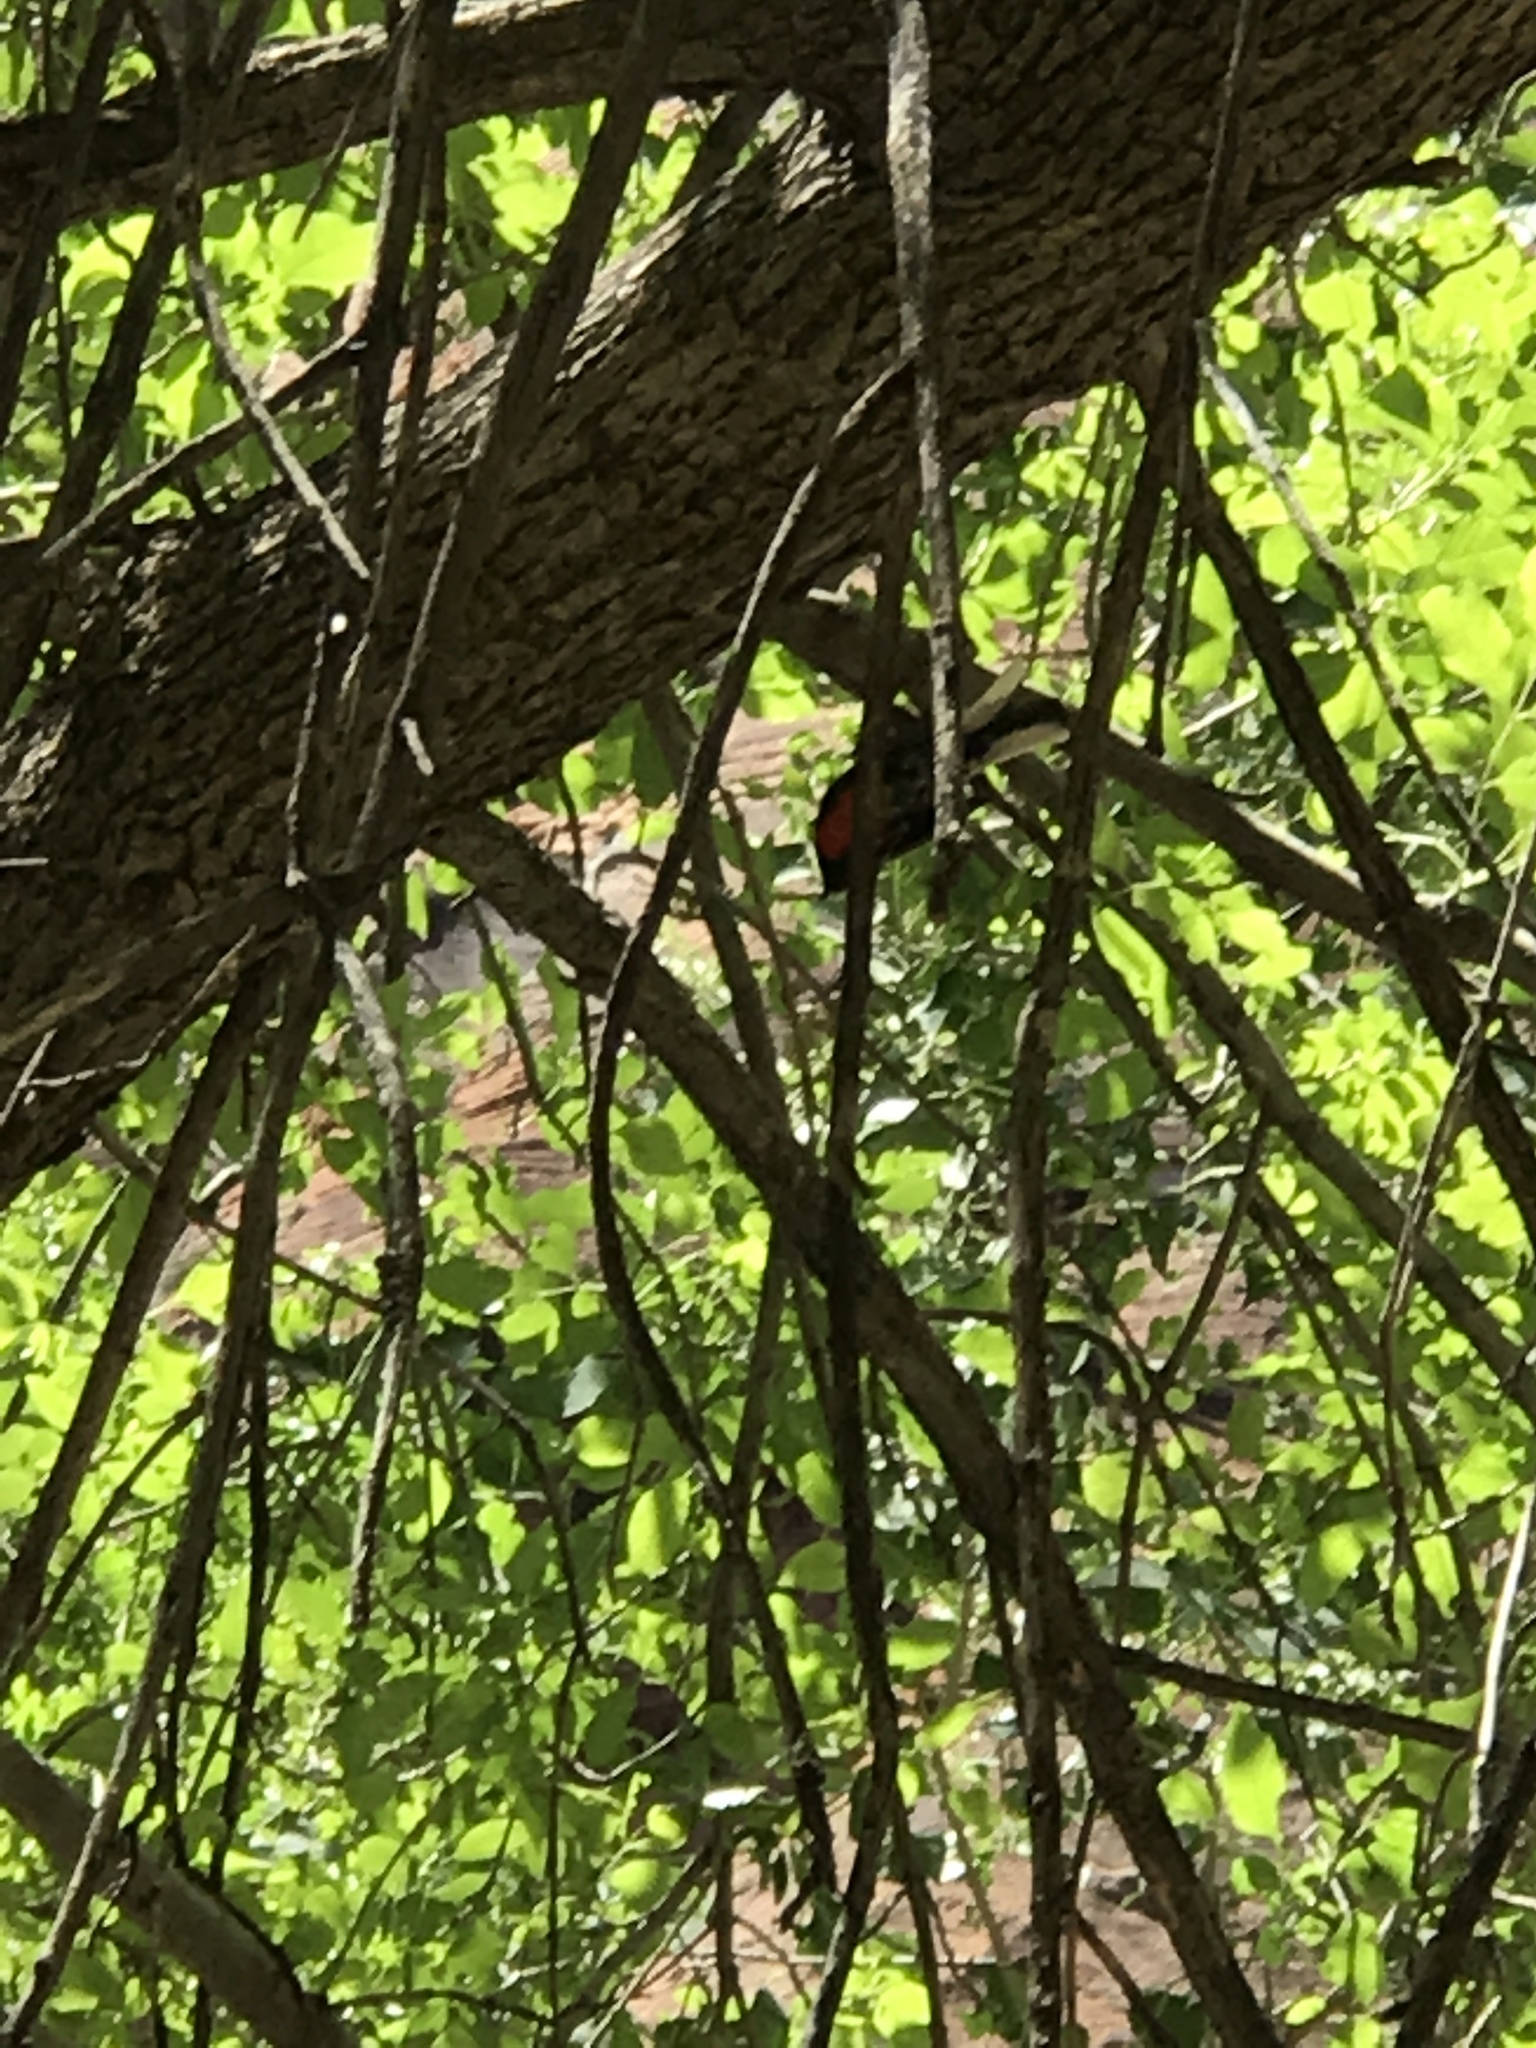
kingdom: Animalia
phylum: Chordata
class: Aves
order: Passeriformes
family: Parulidae
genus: Myioborus
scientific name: Myioborus pictus
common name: Painted whitestart
